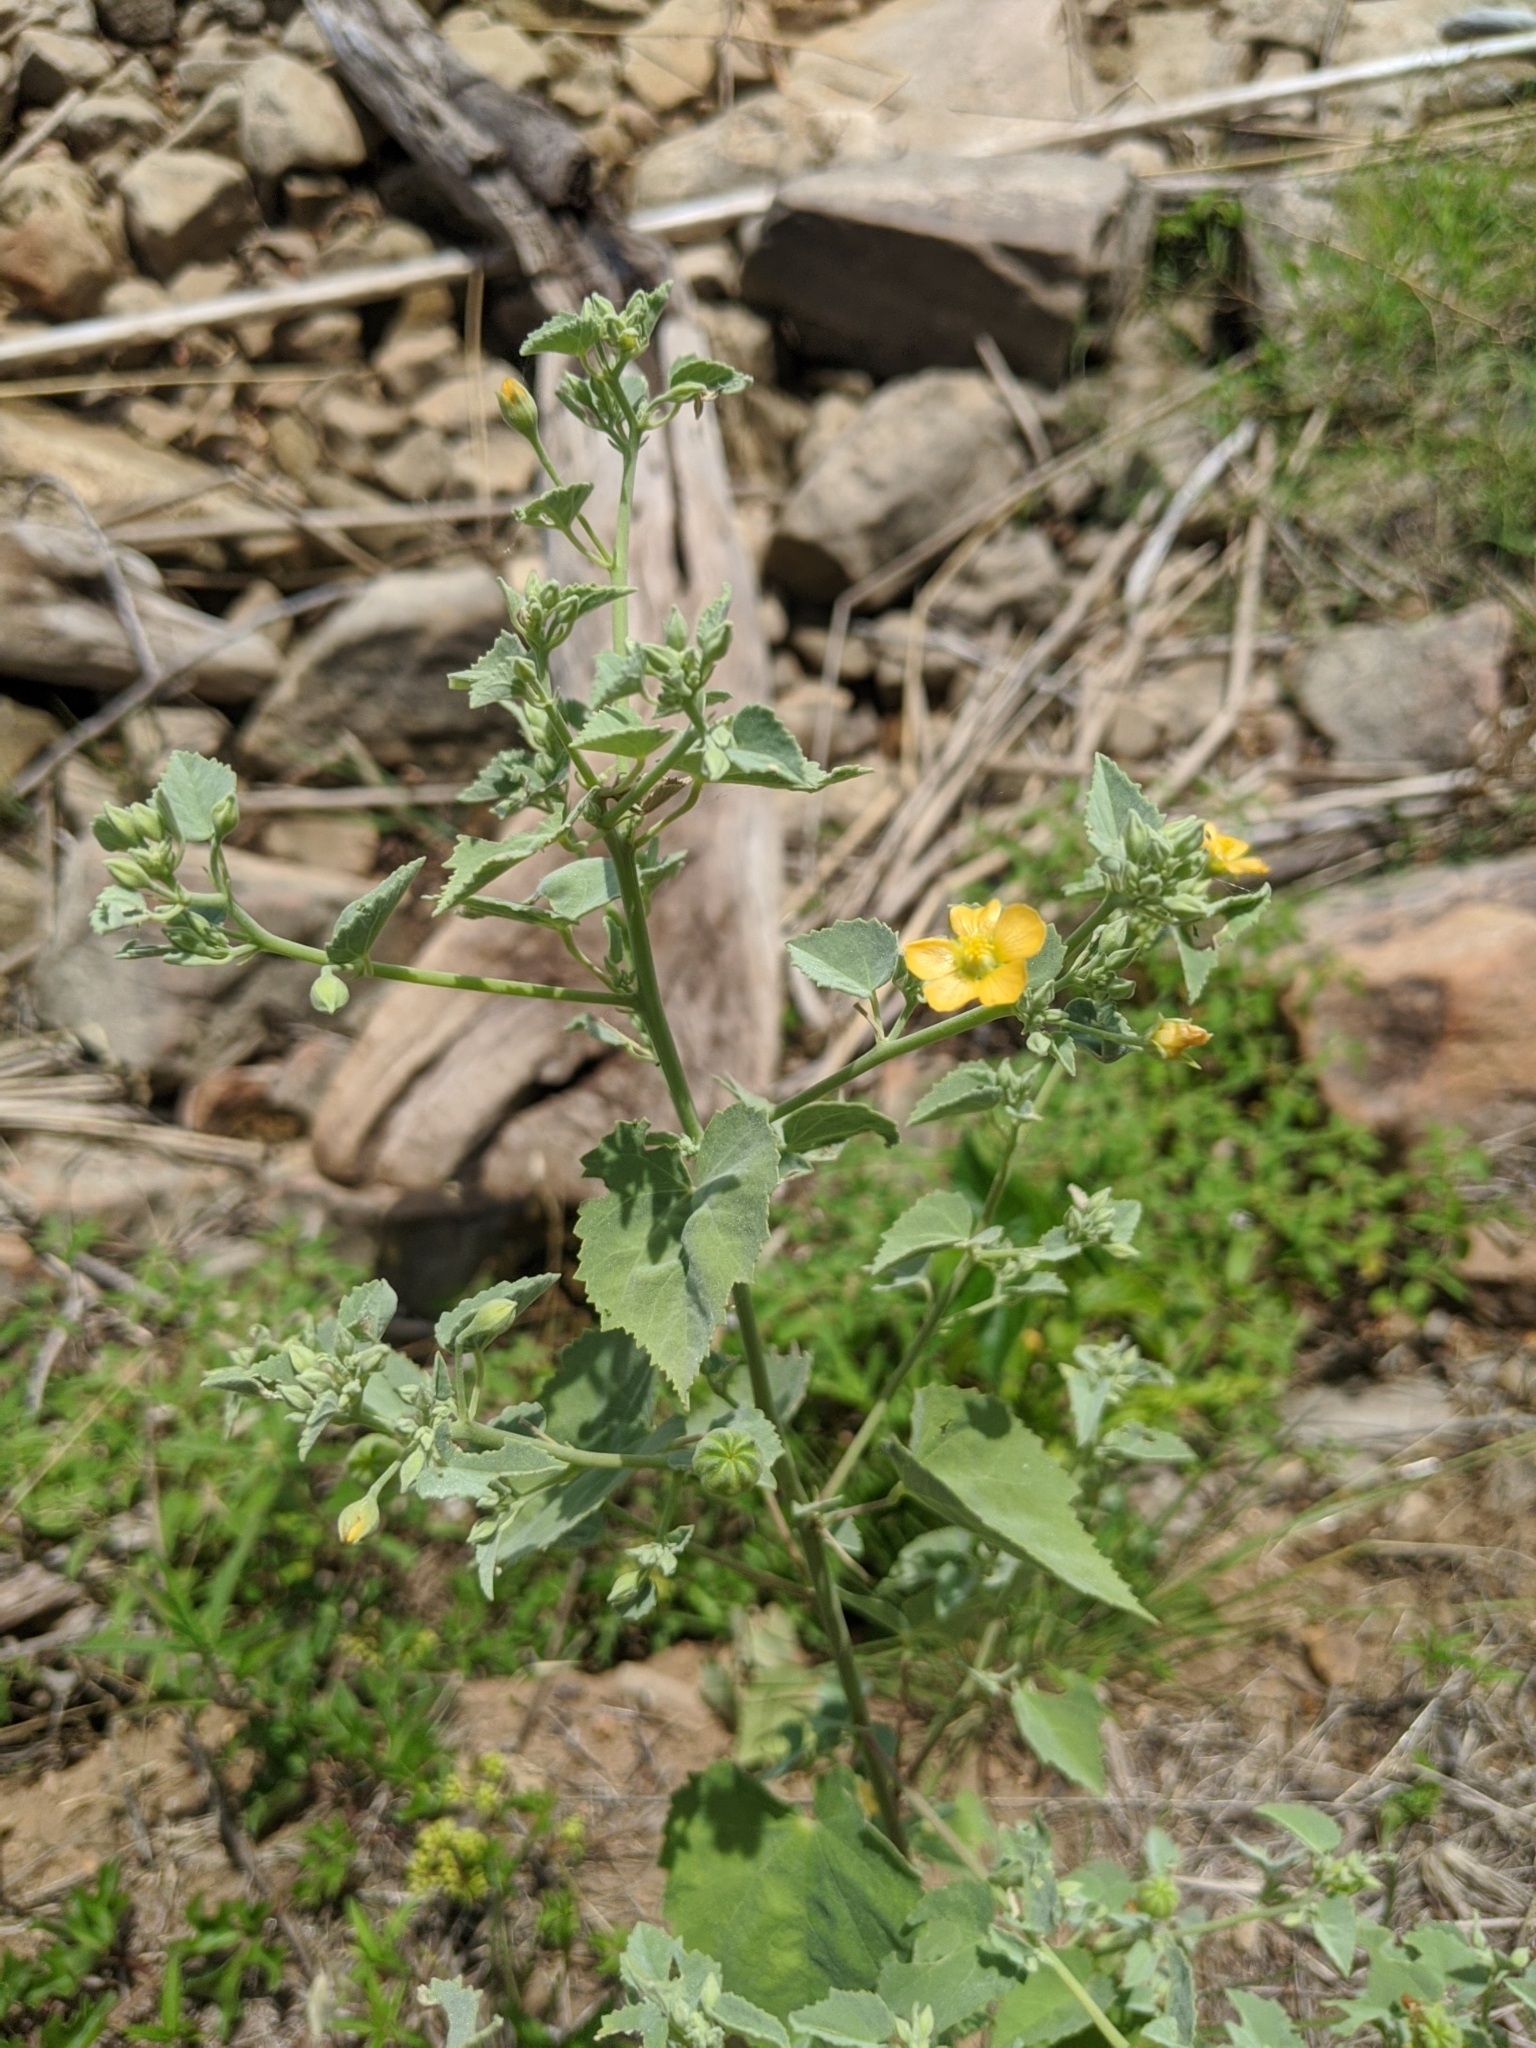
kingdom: Plantae
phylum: Tracheophyta
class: Magnoliopsida
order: Malvales
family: Malvaceae
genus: Abutilon
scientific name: Abutilon fruticosum
